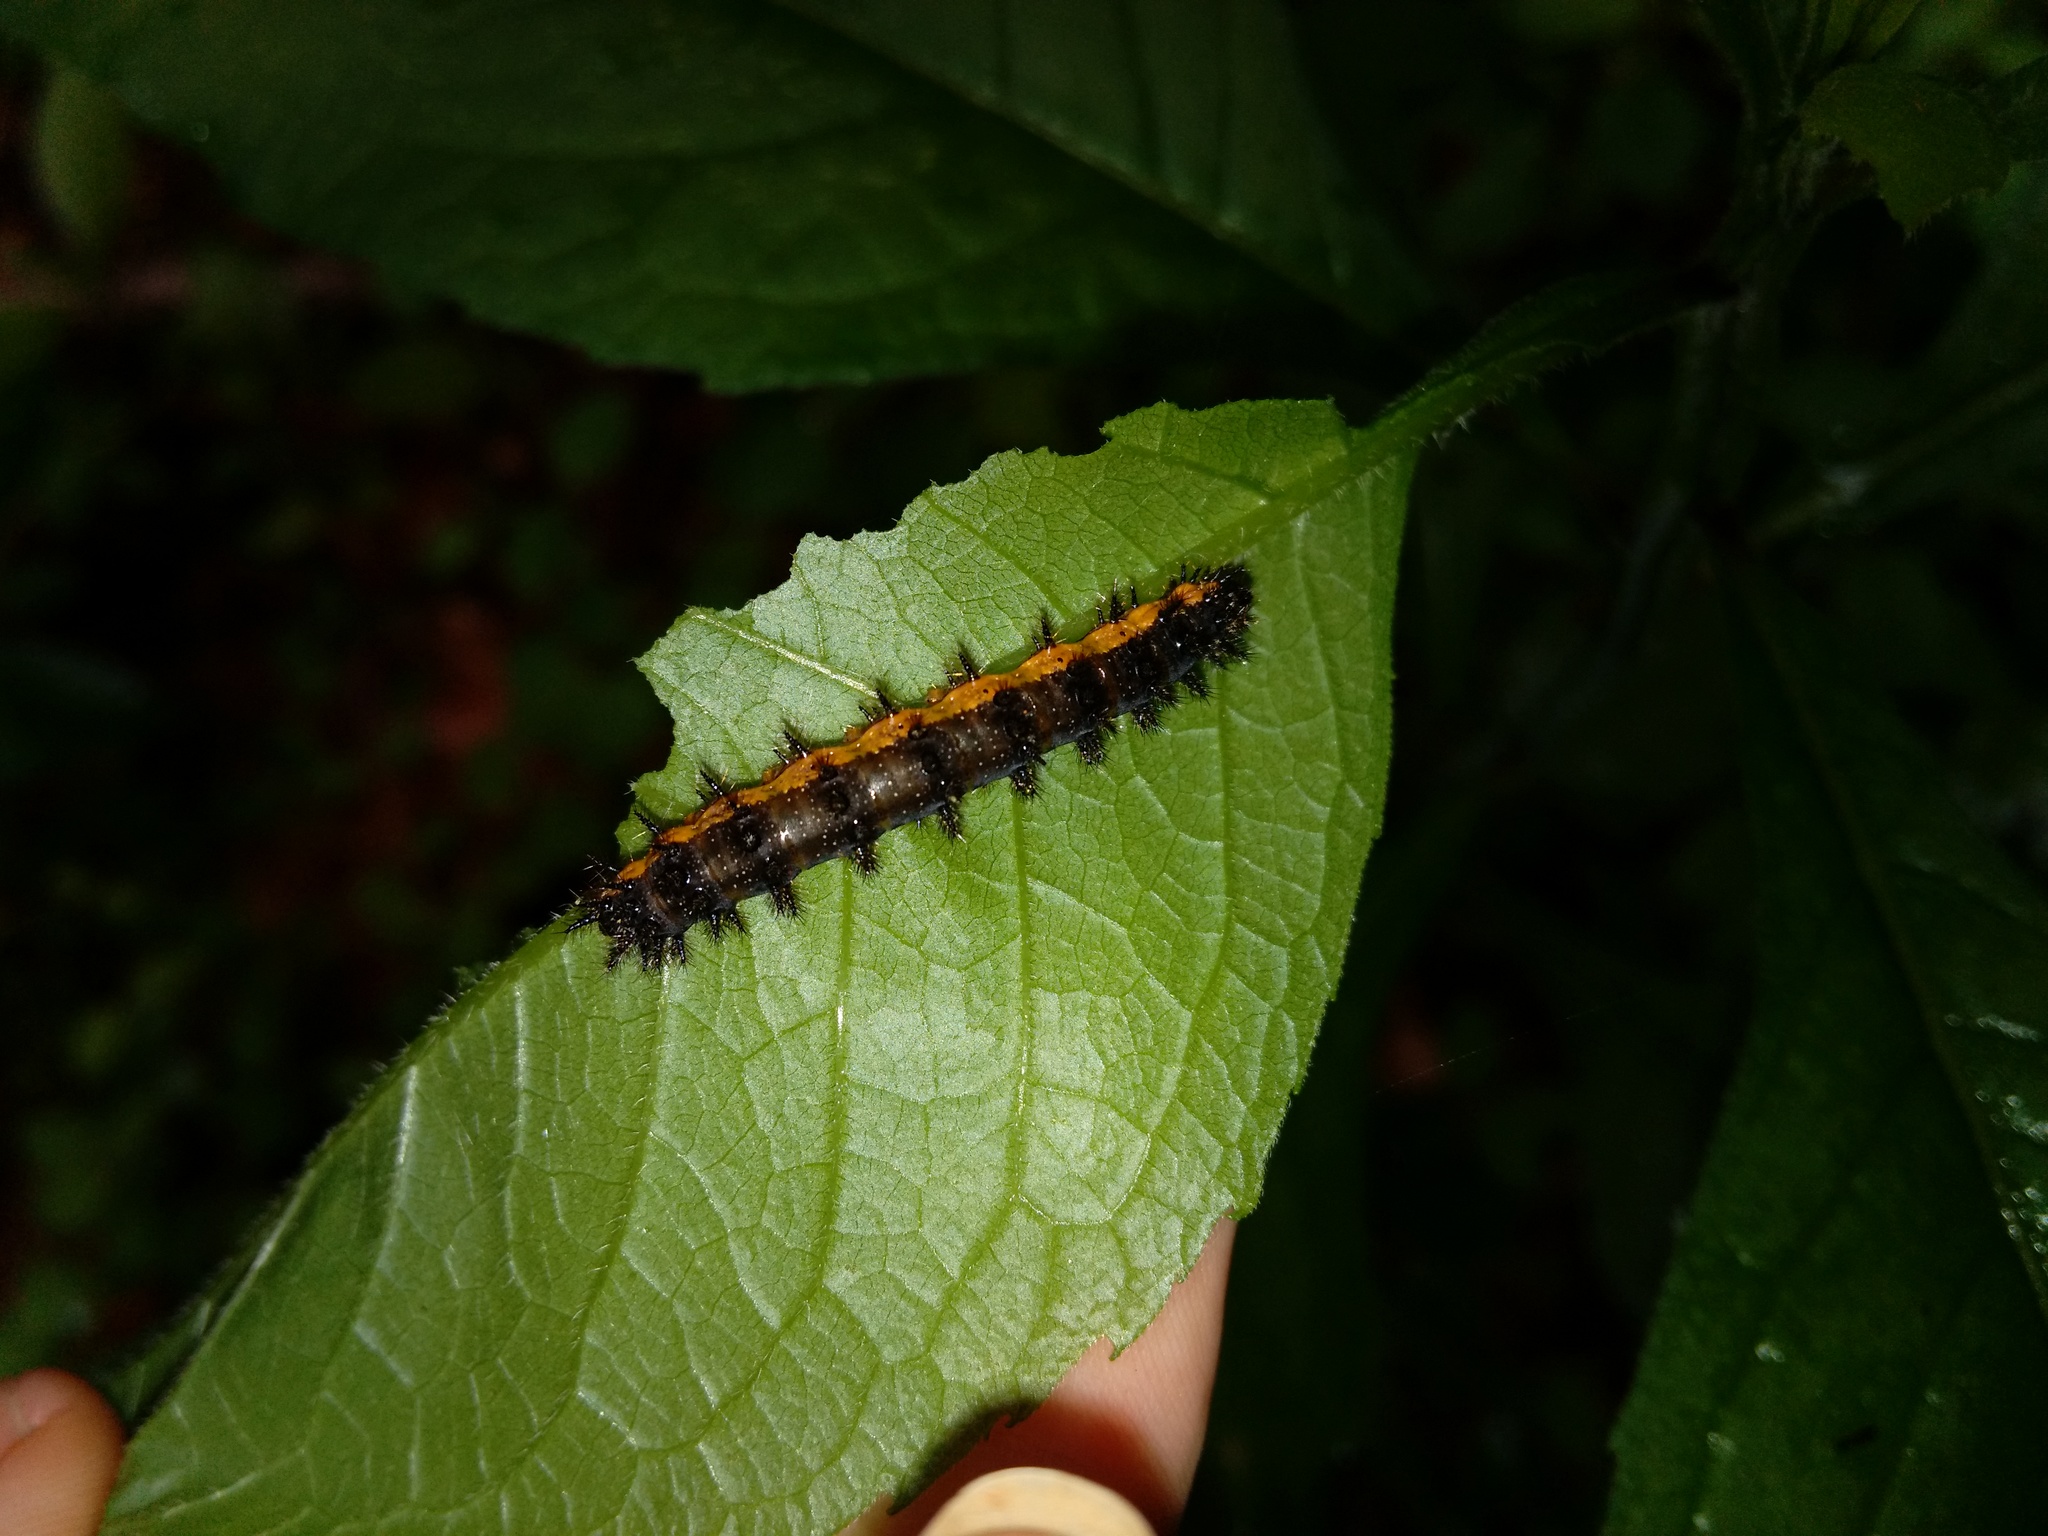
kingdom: Animalia
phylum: Arthropoda
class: Insecta
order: Lepidoptera
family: Nymphalidae
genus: Chlosyne
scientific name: Chlosyne nycteis
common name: Silvery checkerspot
